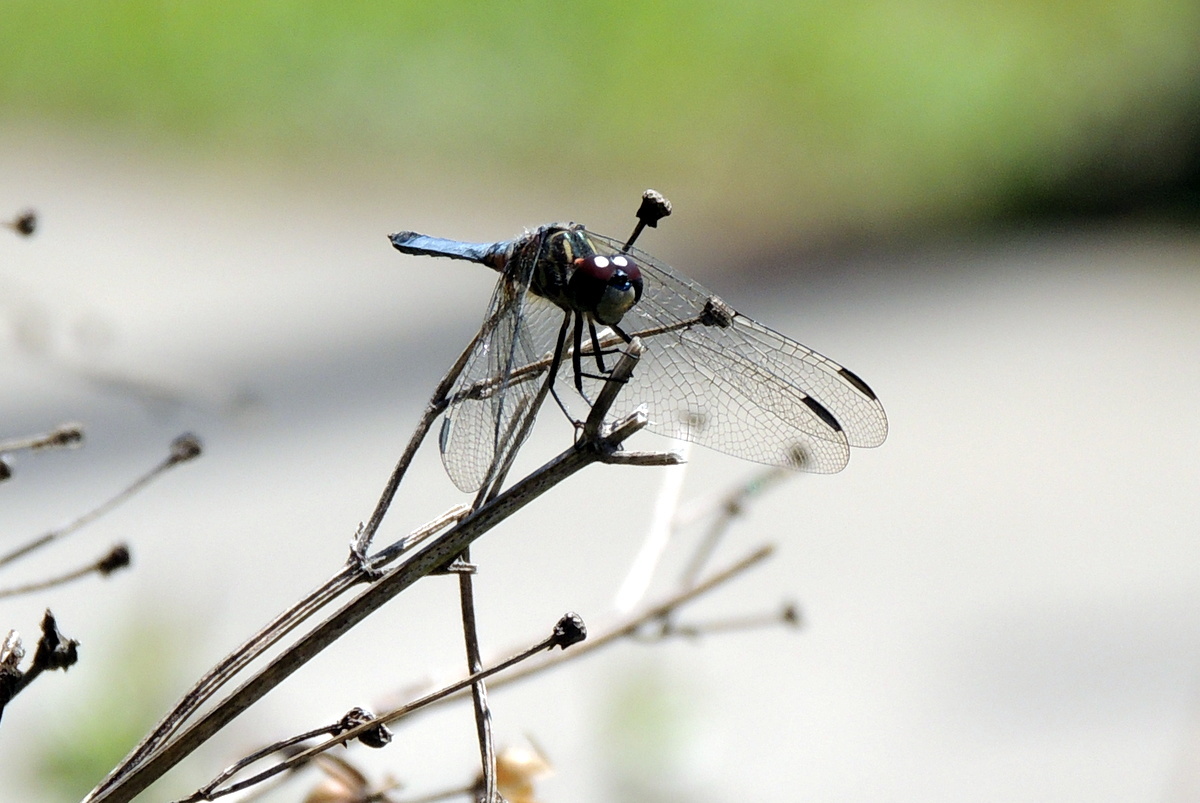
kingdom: Animalia
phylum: Arthropoda
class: Insecta
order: Odonata
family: Libellulidae
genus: Pachydiplax
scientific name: Pachydiplax longipennis
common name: Blue dasher
